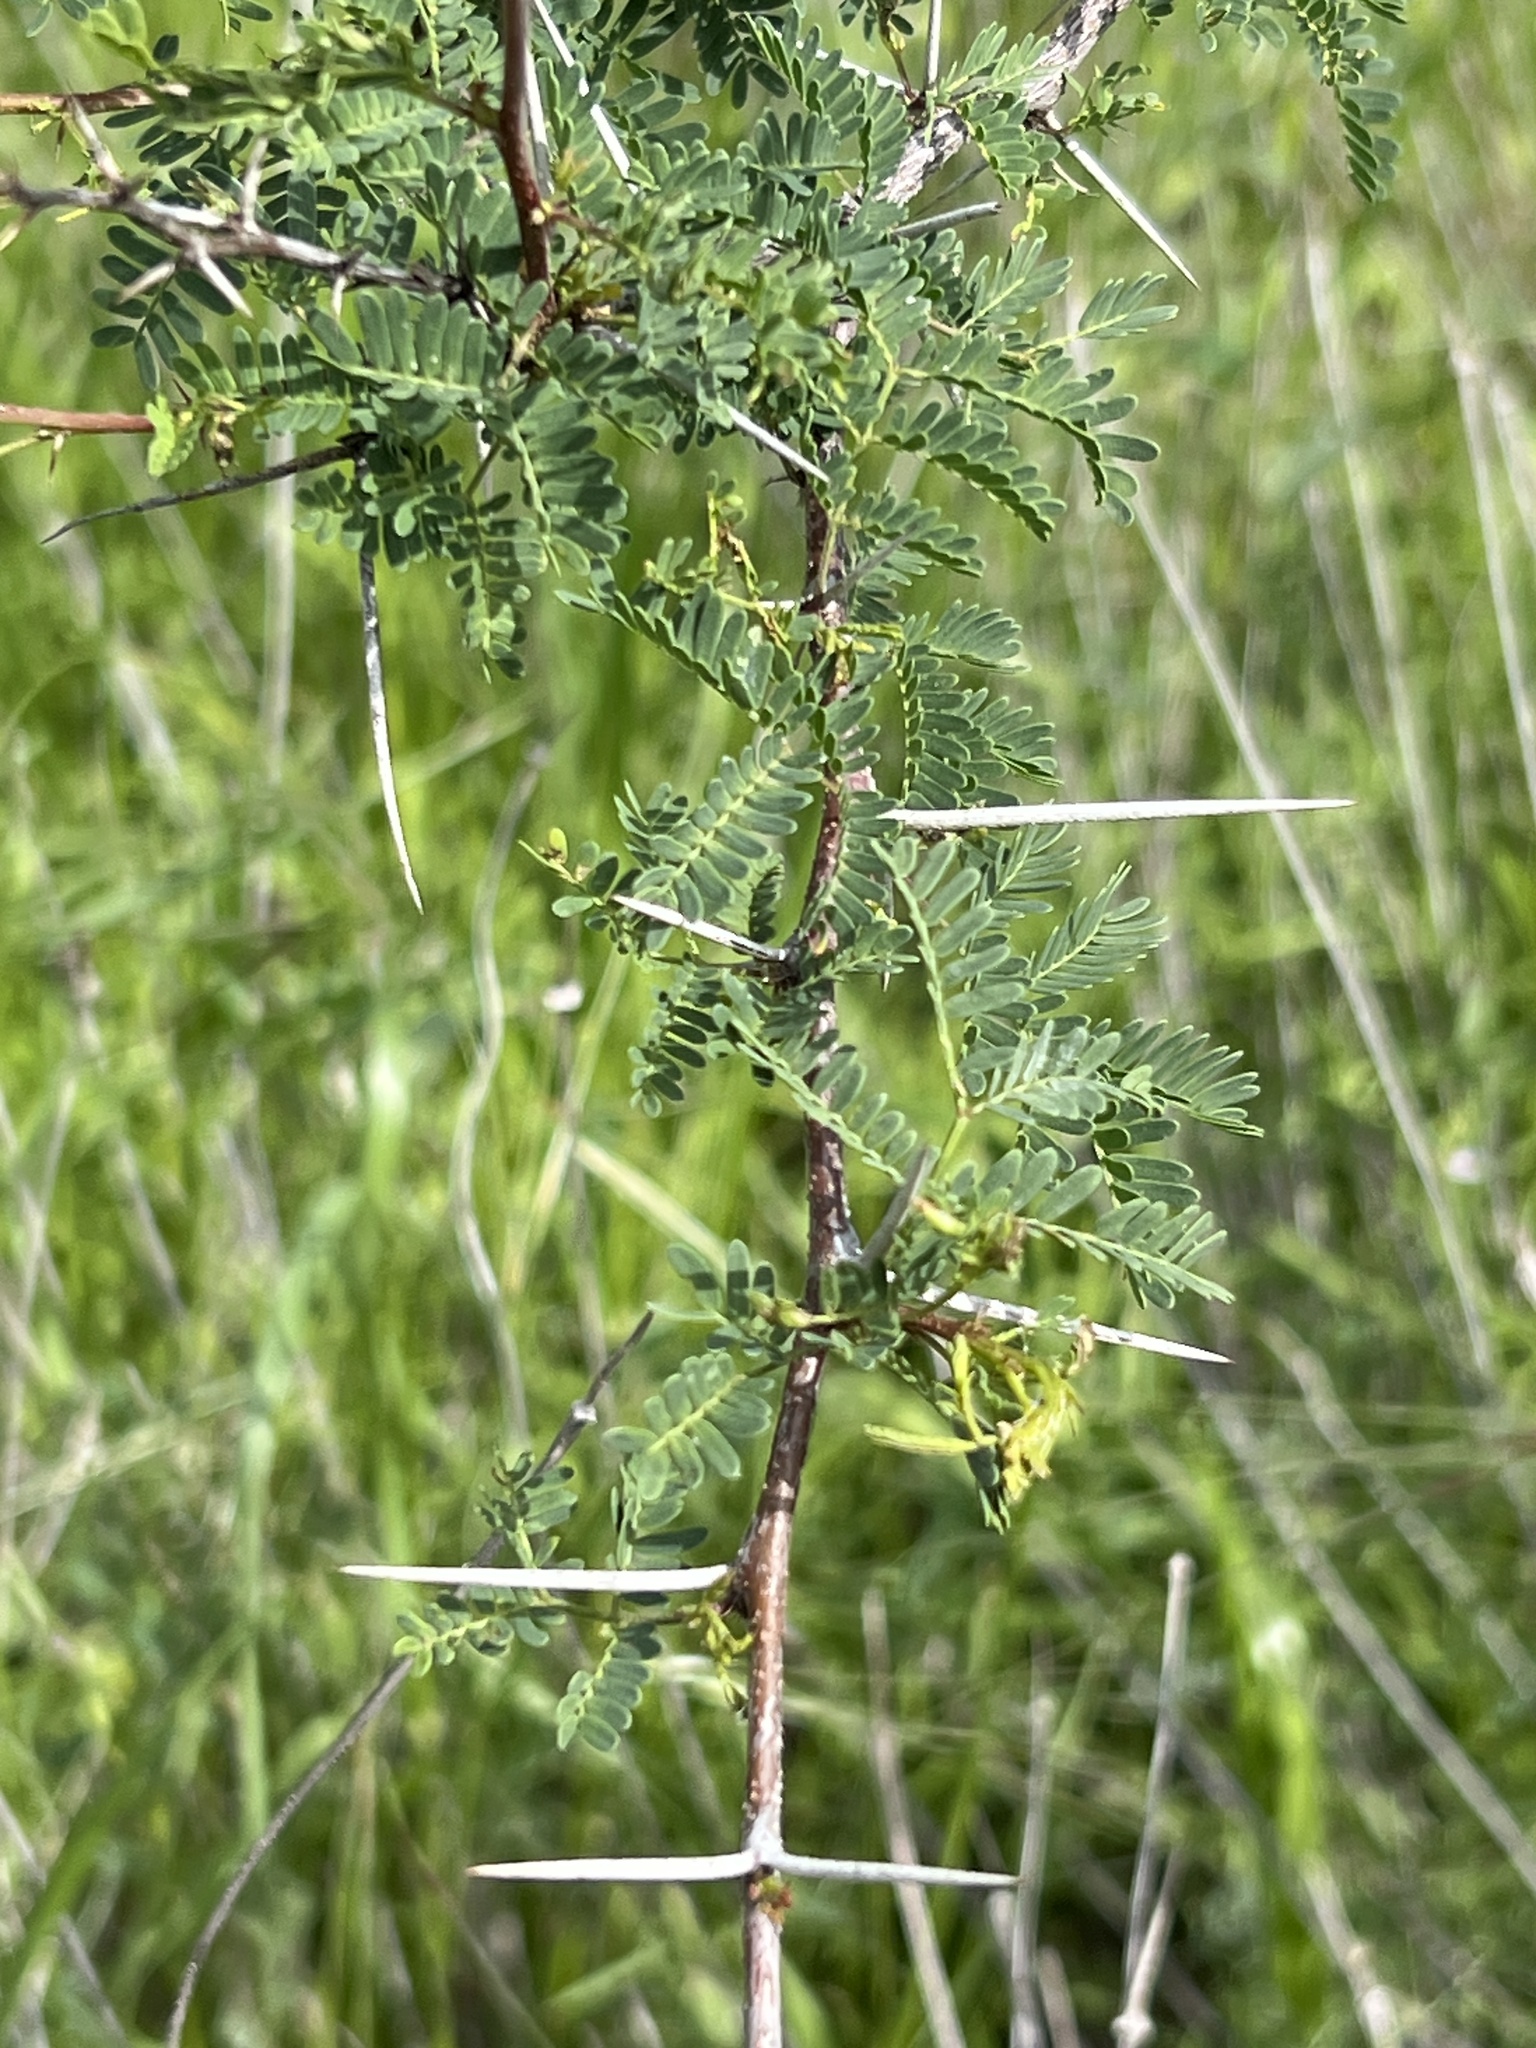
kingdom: Plantae
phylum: Tracheophyta
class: Magnoliopsida
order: Fabales
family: Fabaceae
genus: Vachellia
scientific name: Vachellia farnesiana
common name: Sweet acacia
